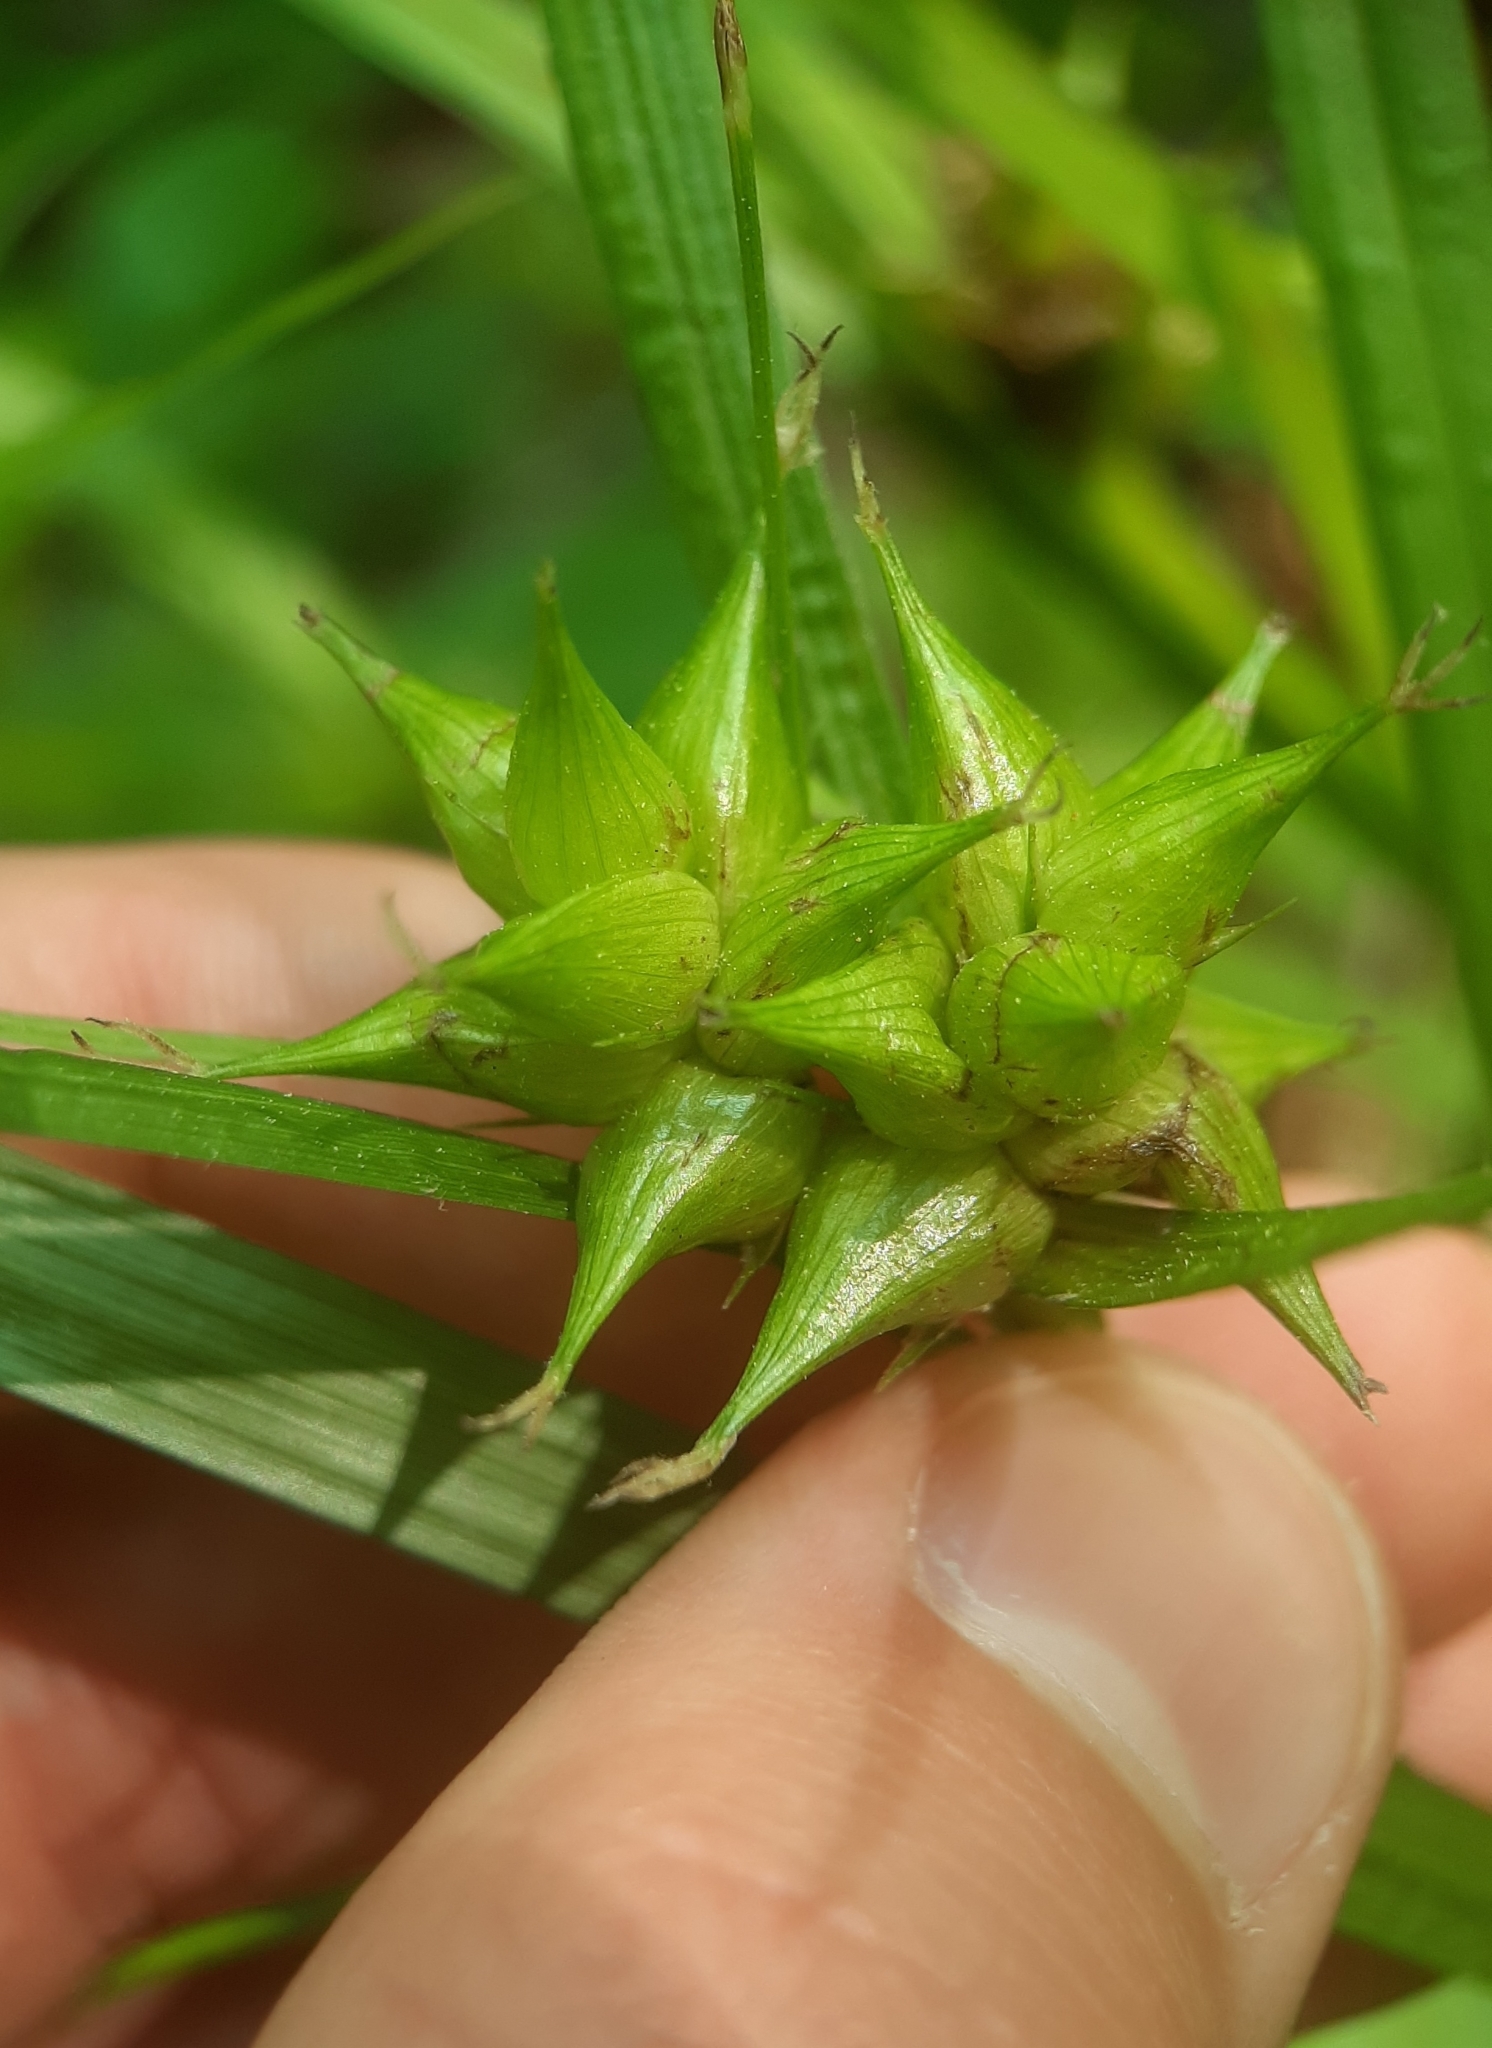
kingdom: Plantae
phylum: Tracheophyta
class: Liliopsida
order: Poales
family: Cyperaceae
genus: Carex
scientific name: Carex intumescens
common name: Greater bladder sedge
